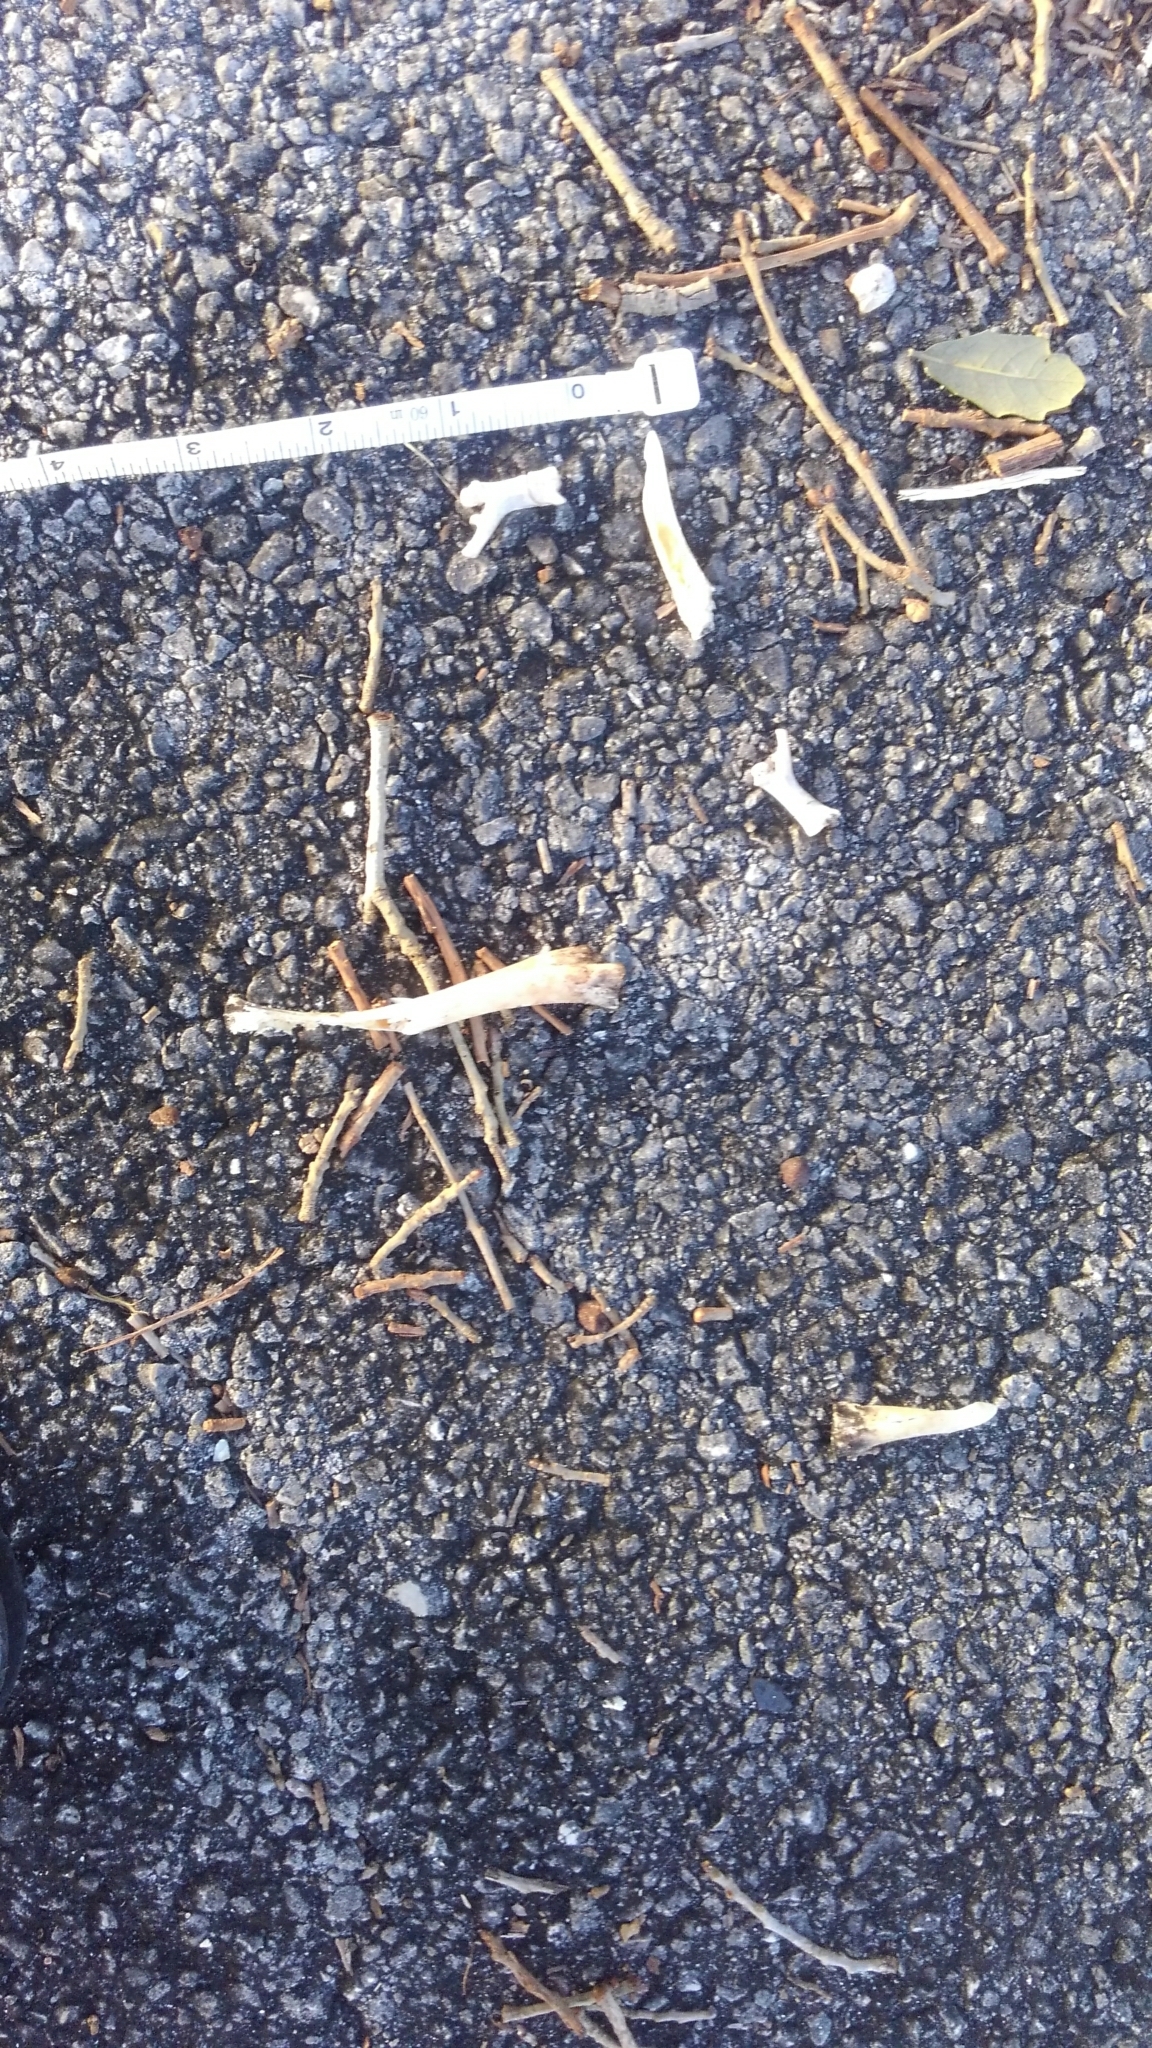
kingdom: Animalia
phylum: Chordata
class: Squamata
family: Iguanidae
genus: Iguana
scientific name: Iguana iguana
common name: Green iguana
